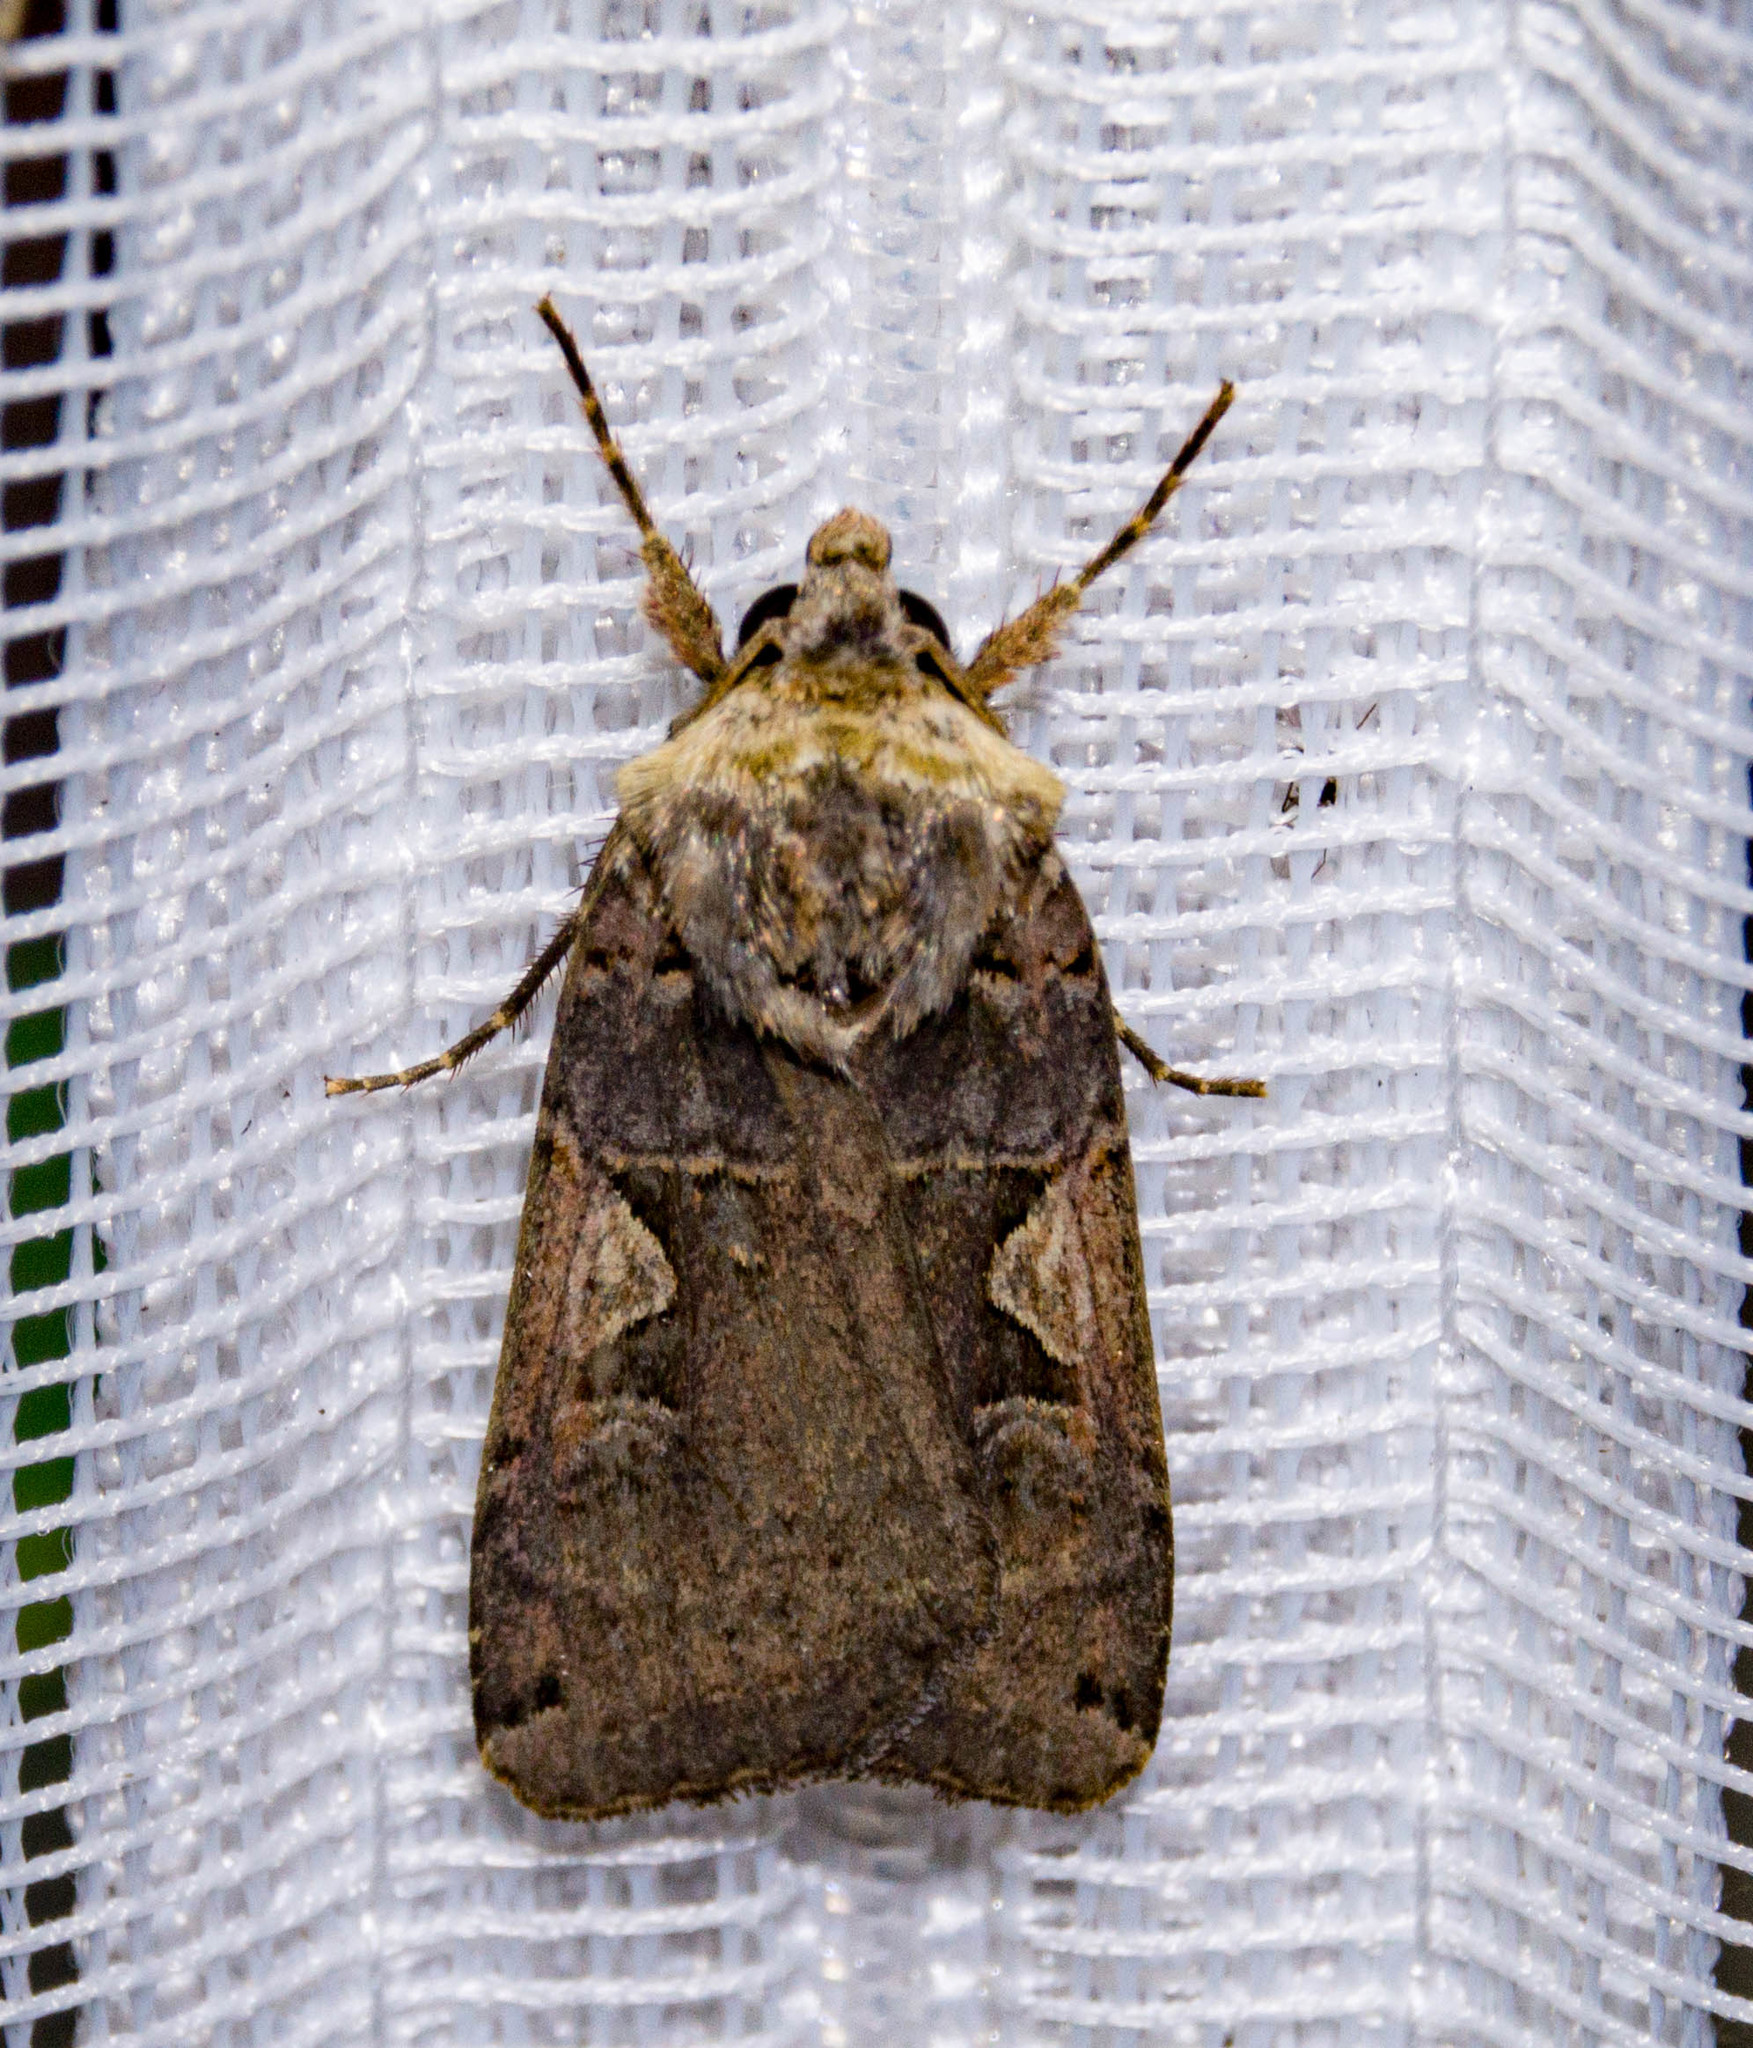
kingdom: Animalia
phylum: Arthropoda
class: Insecta
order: Lepidoptera
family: Noctuidae
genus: Xestia
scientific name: Xestia c-nigrum
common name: Setaceous hebrew character
